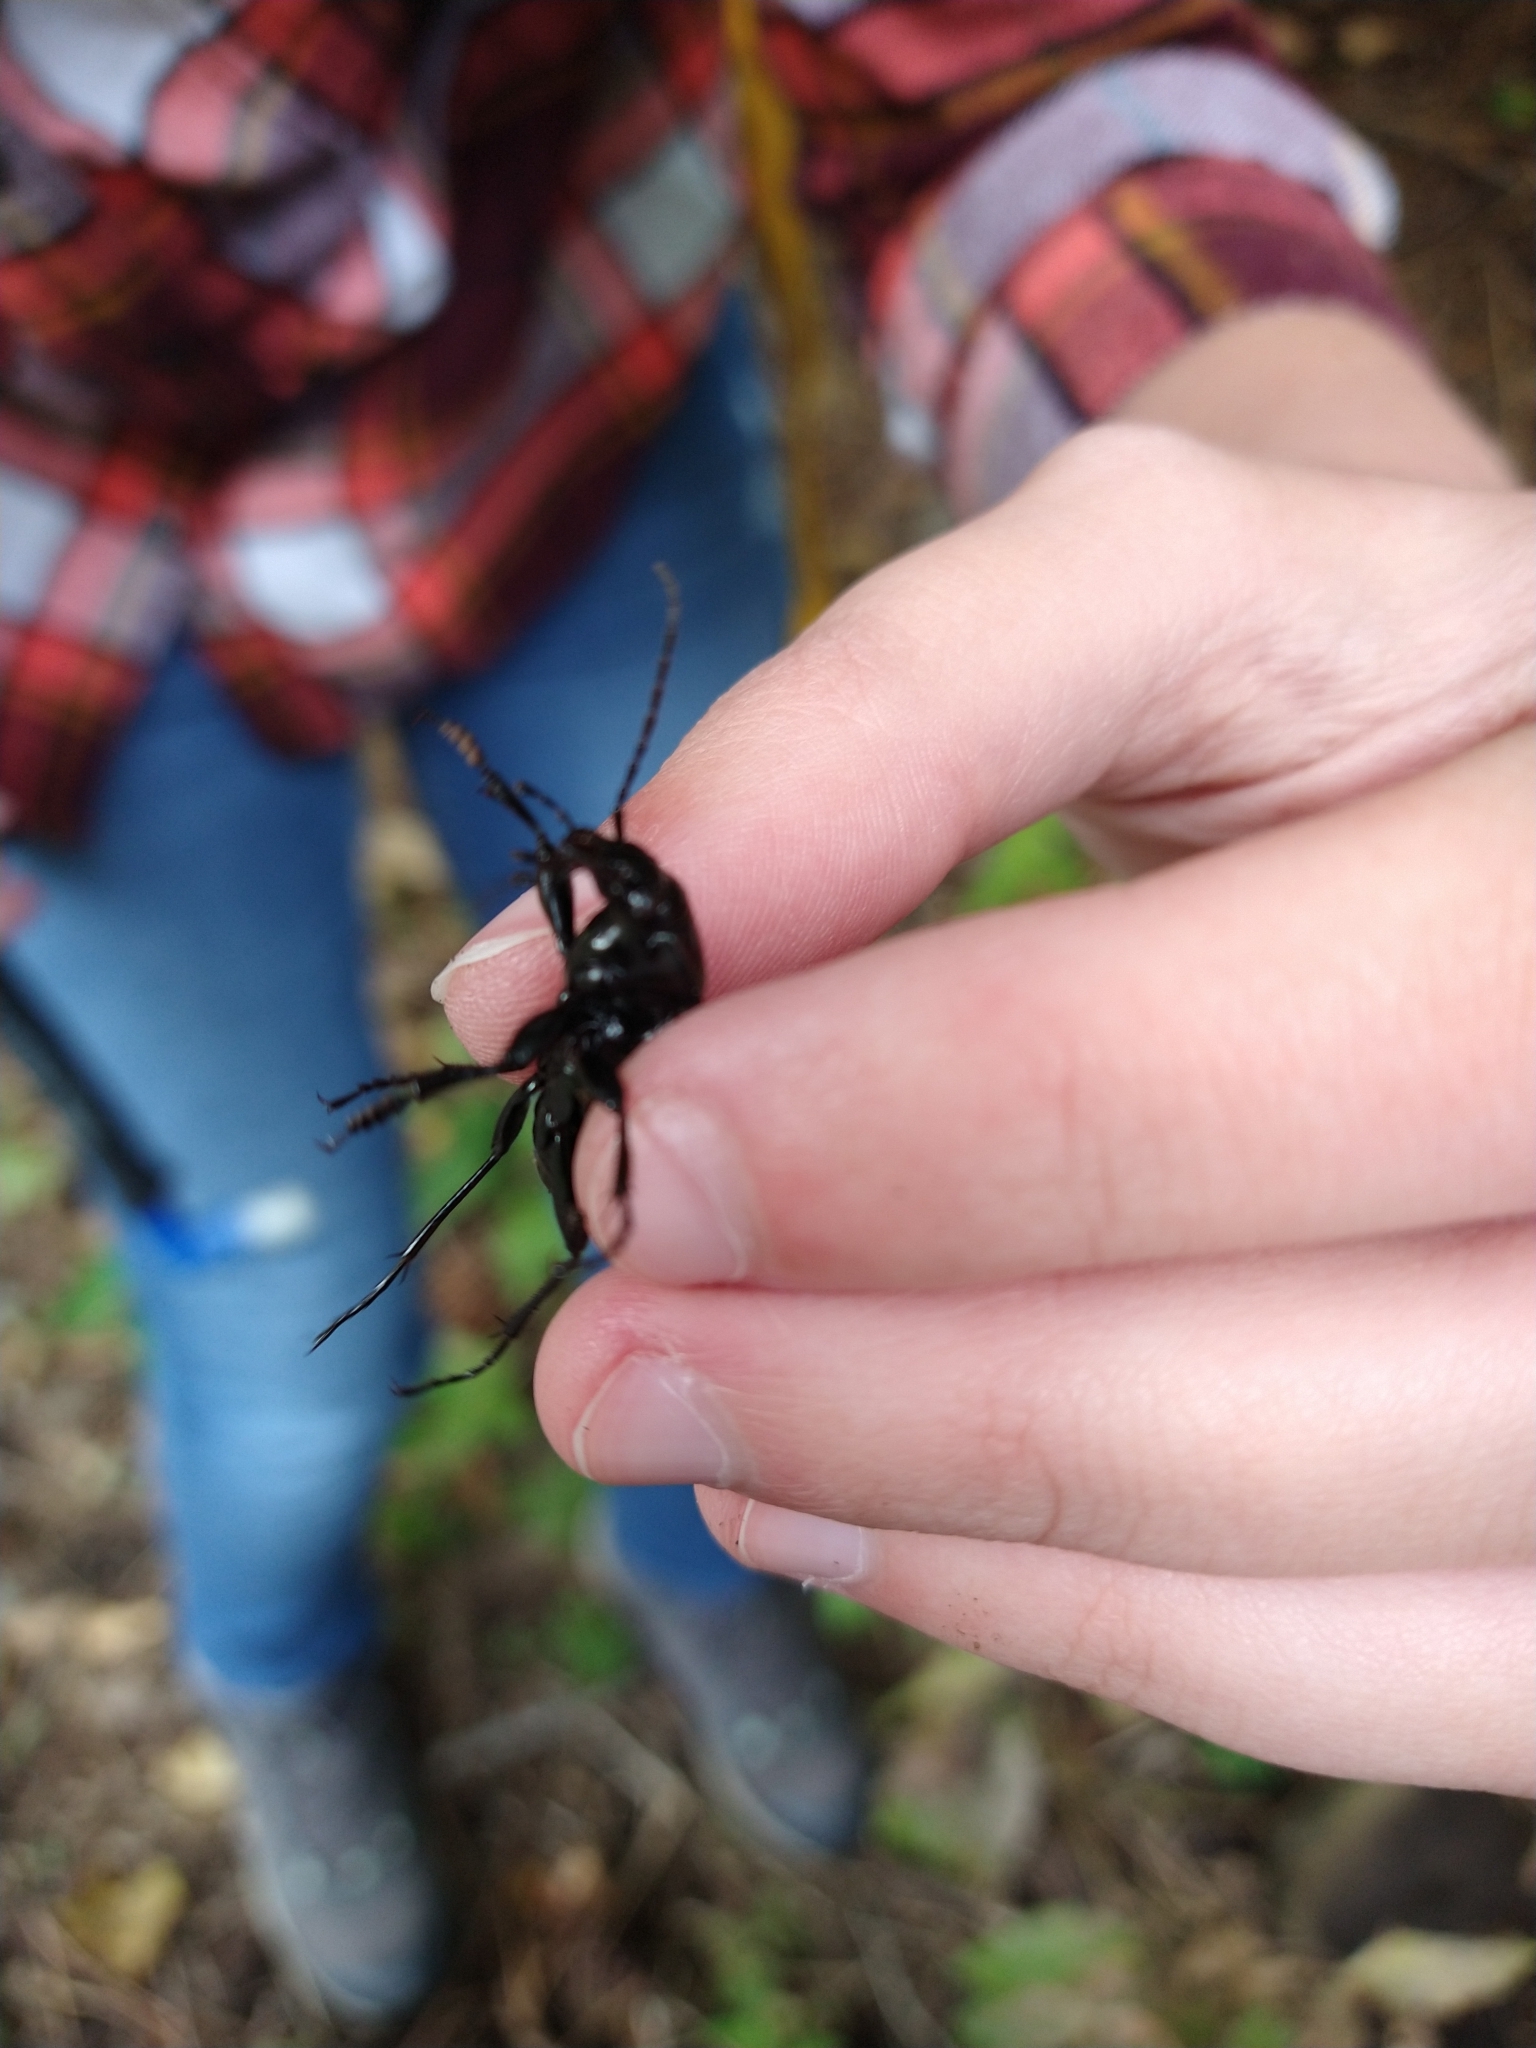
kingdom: Animalia
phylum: Arthropoda
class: Insecta
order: Coleoptera
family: Carabidae
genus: Carabus
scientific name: Carabus nemoralis
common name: European ground beetle
